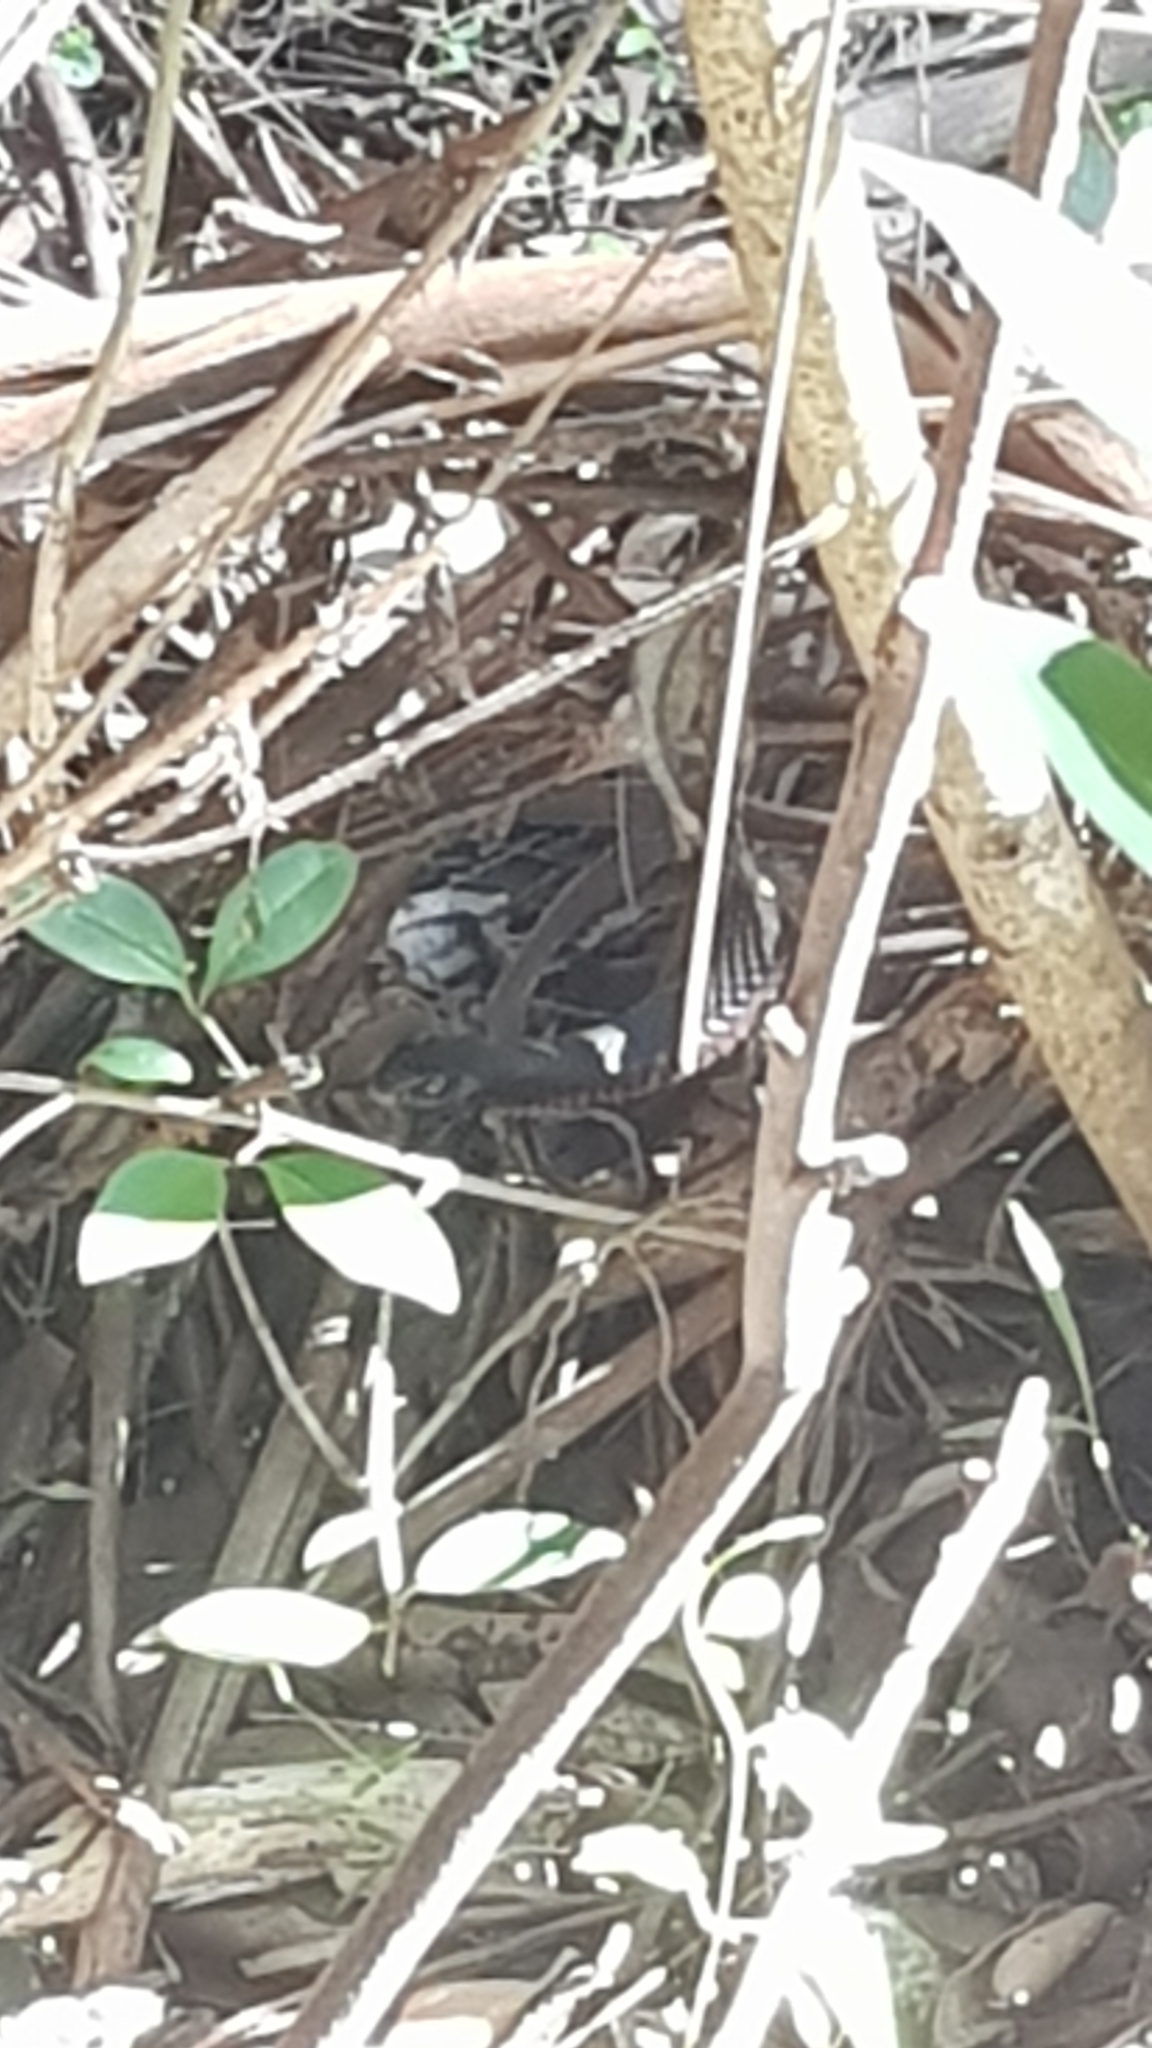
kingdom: Animalia
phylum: Chordata
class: Squamata
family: Elapidae
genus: Pseudechis
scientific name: Pseudechis porphyriacus
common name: Australian black snake
